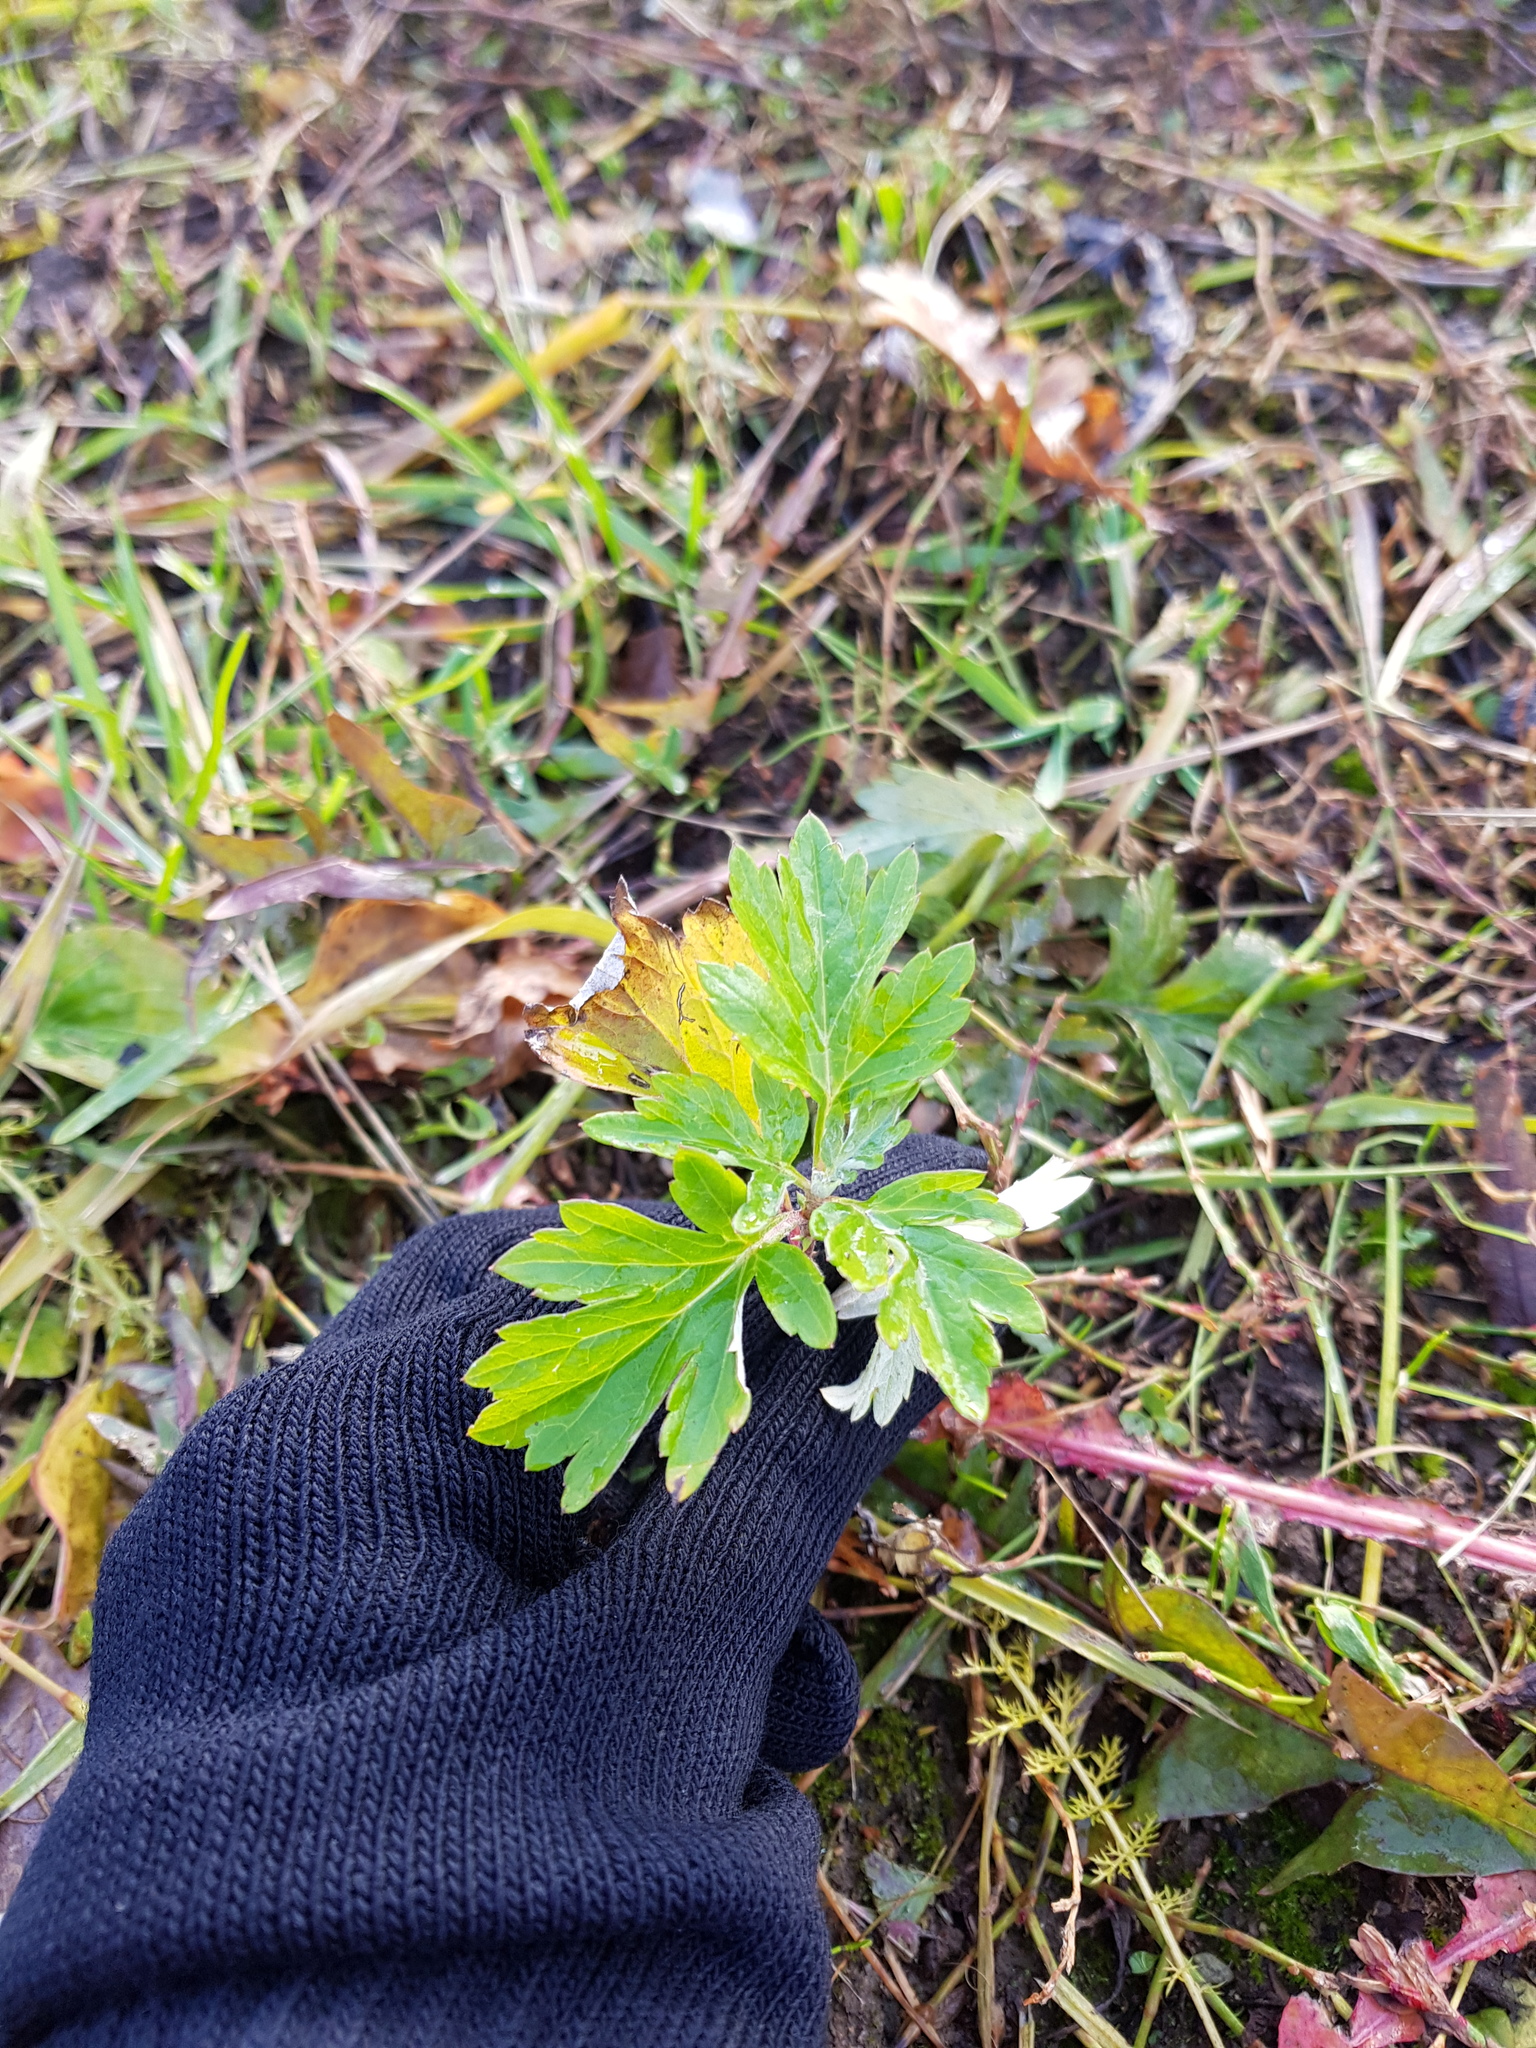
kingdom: Plantae
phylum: Tracheophyta
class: Magnoliopsida
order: Asterales
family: Asteraceae
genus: Artemisia
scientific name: Artemisia vulgaris
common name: Mugwort
